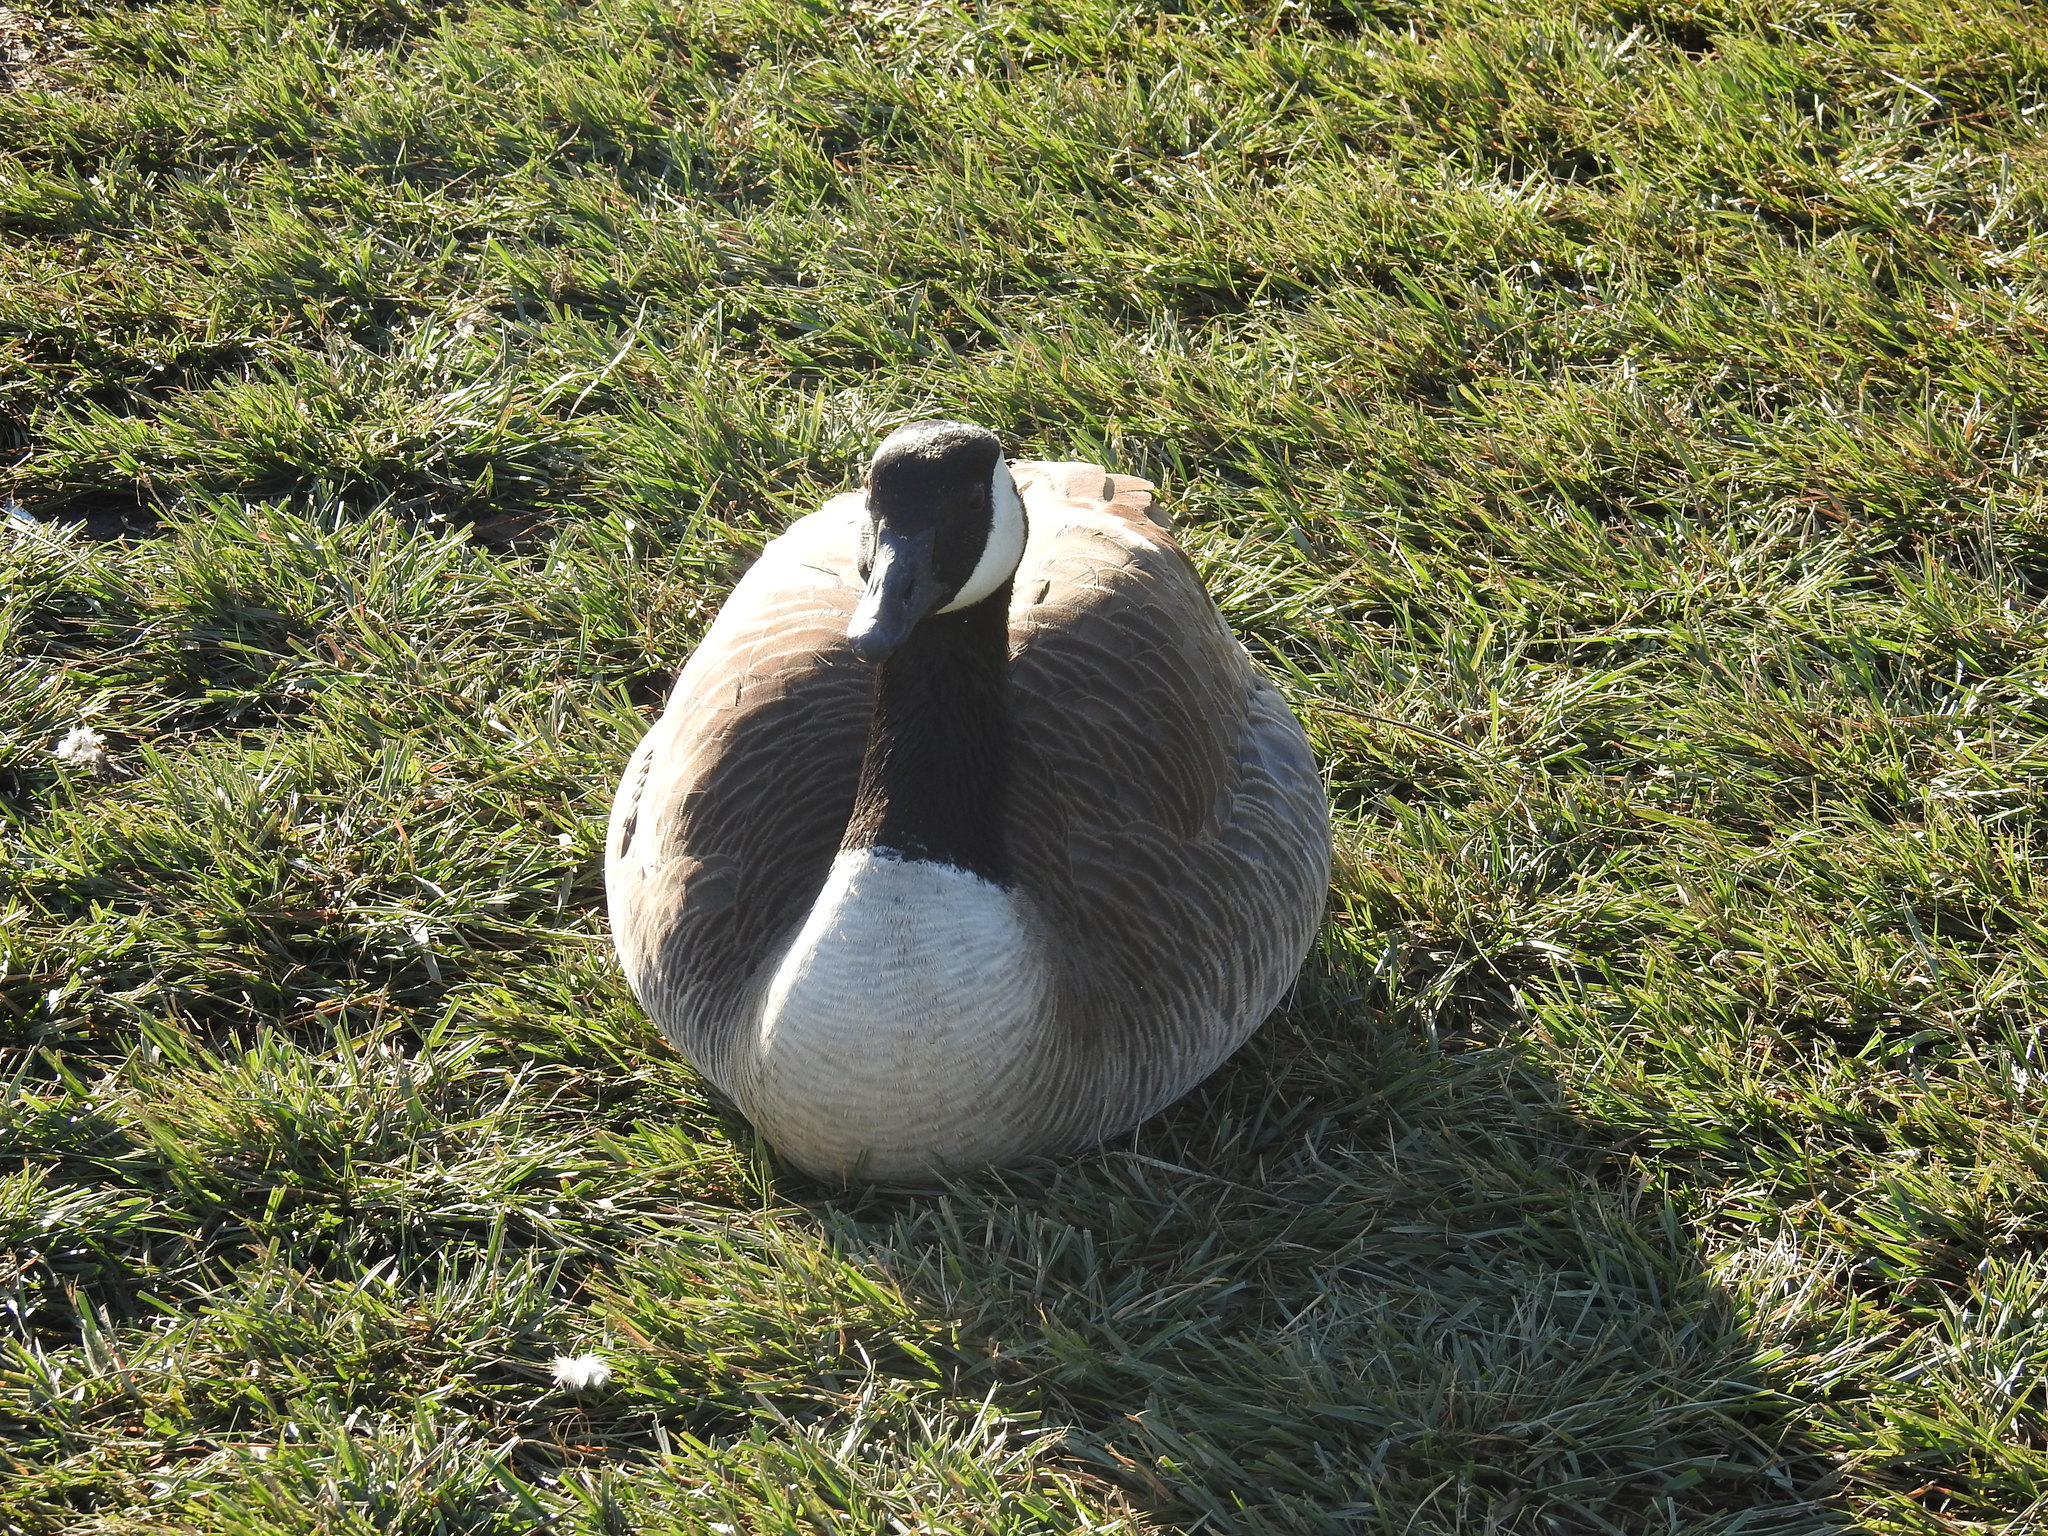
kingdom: Animalia
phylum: Chordata
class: Aves
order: Anseriformes
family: Anatidae
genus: Branta
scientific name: Branta canadensis
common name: Canada goose
